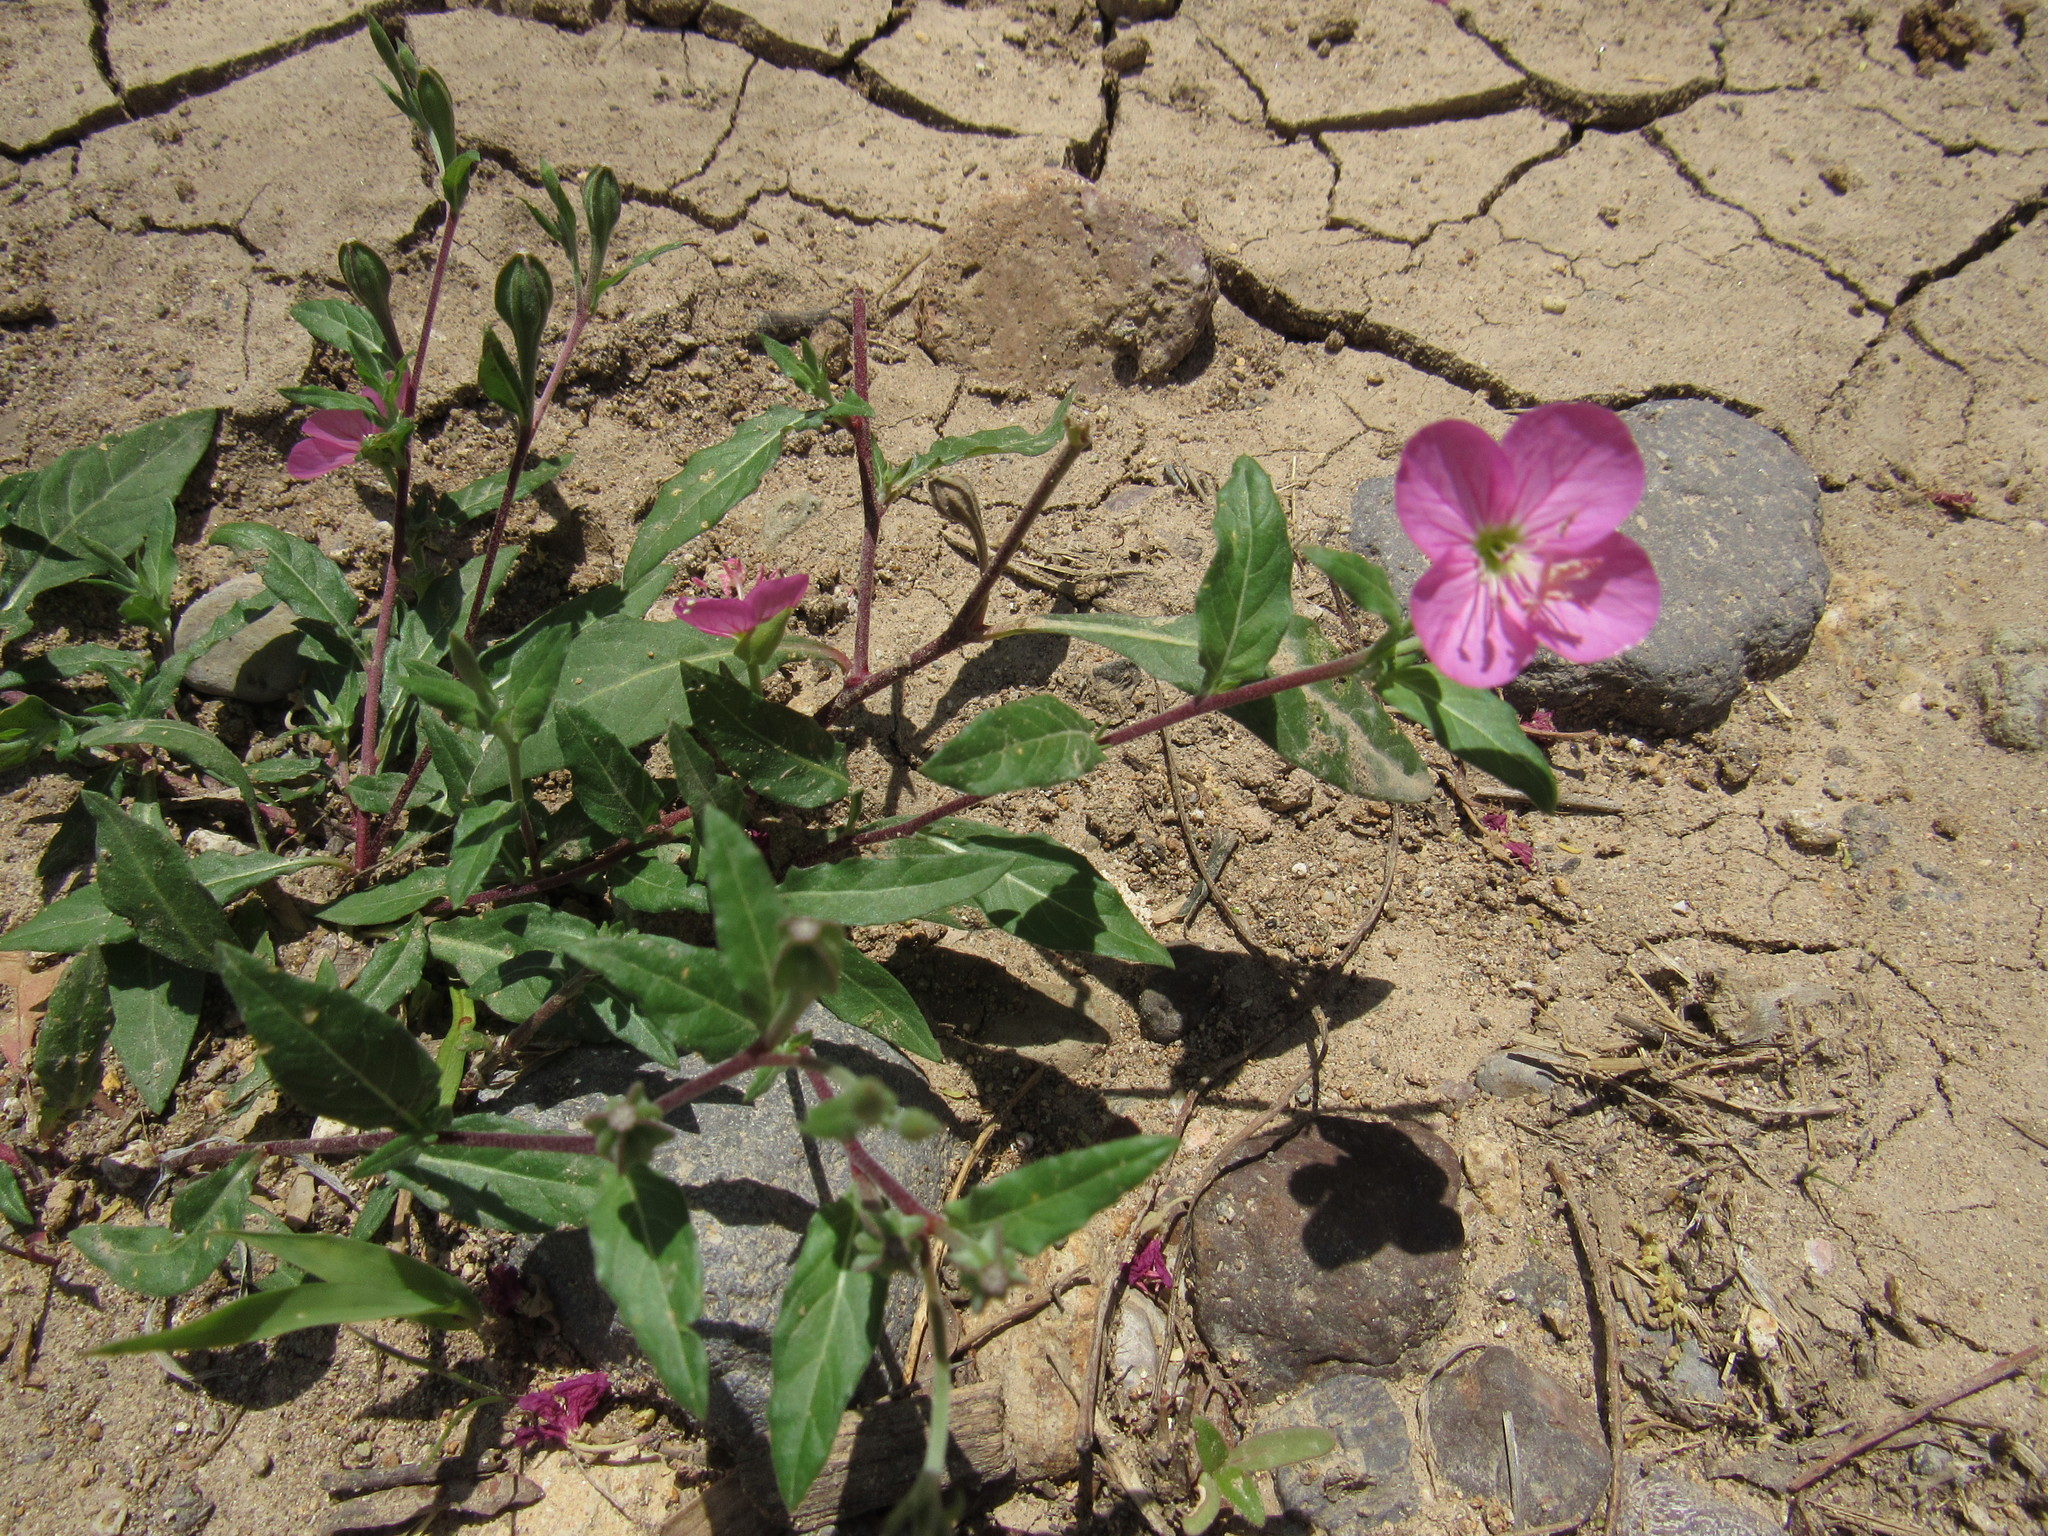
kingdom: Plantae
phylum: Tracheophyta
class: Magnoliopsida
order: Myrtales
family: Onagraceae
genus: Oenothera
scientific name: Oenothera rosea
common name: Rosy evening-primrose
